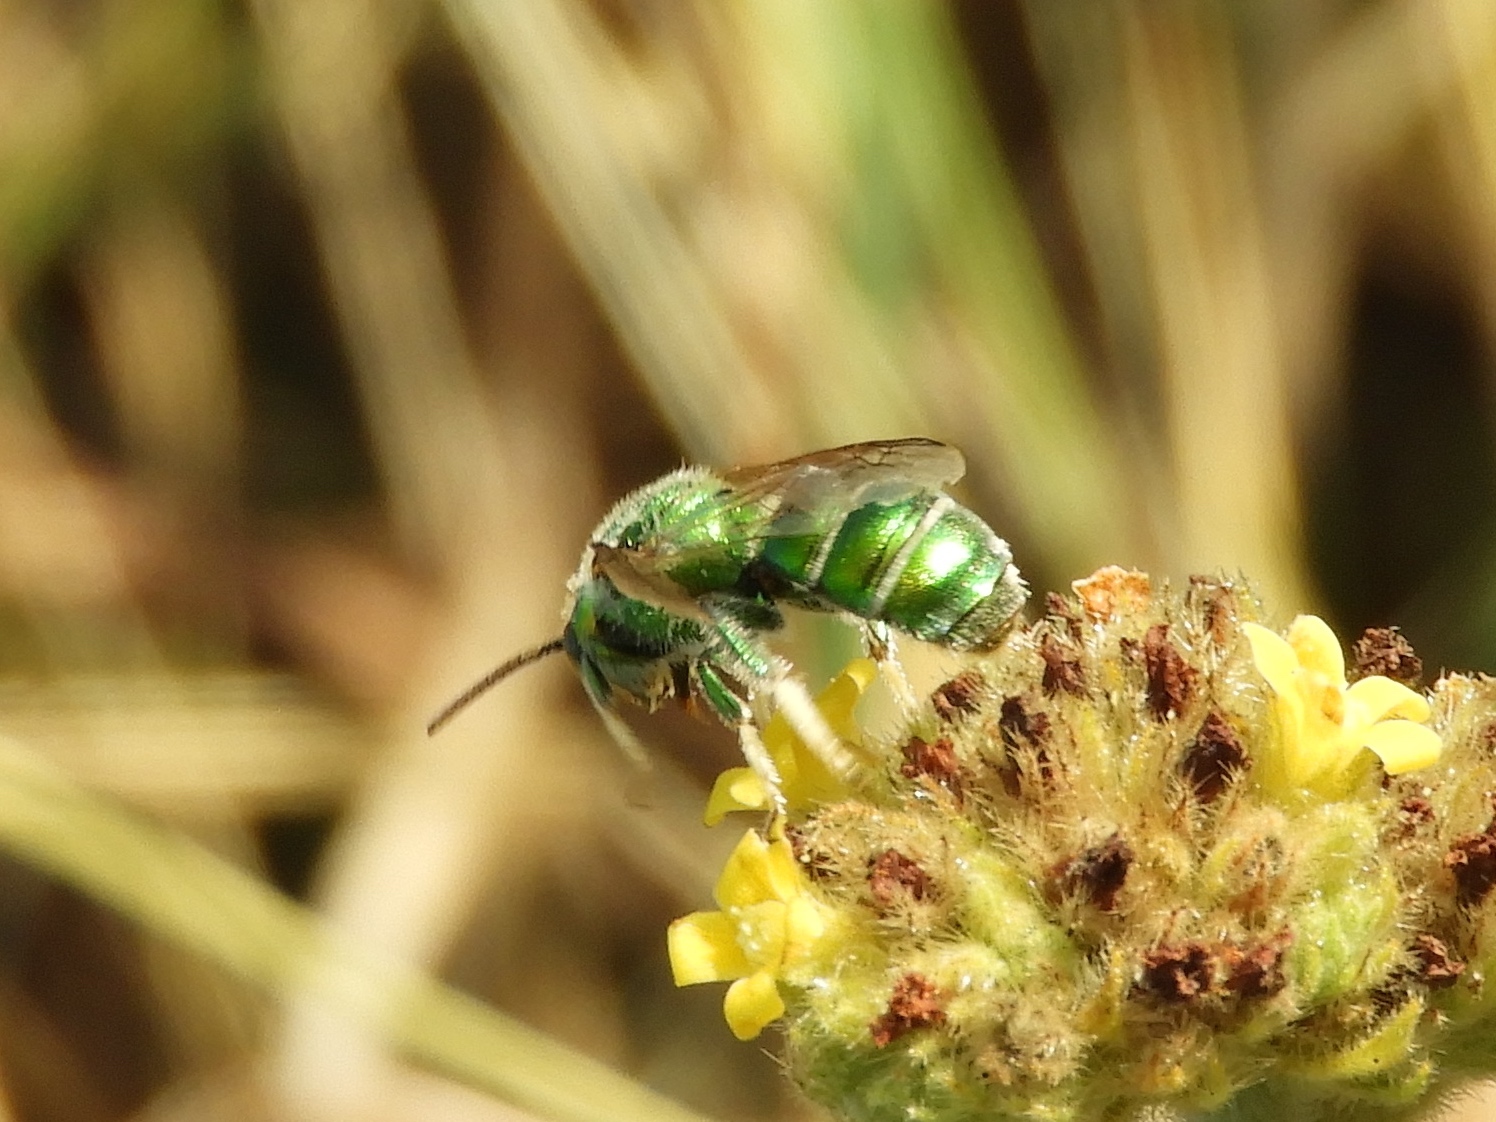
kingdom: Animalia
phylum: Arthropoda
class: Insecta
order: Hymenoptera
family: Halictidae
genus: Augochloropsis
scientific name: Augochloropsis
